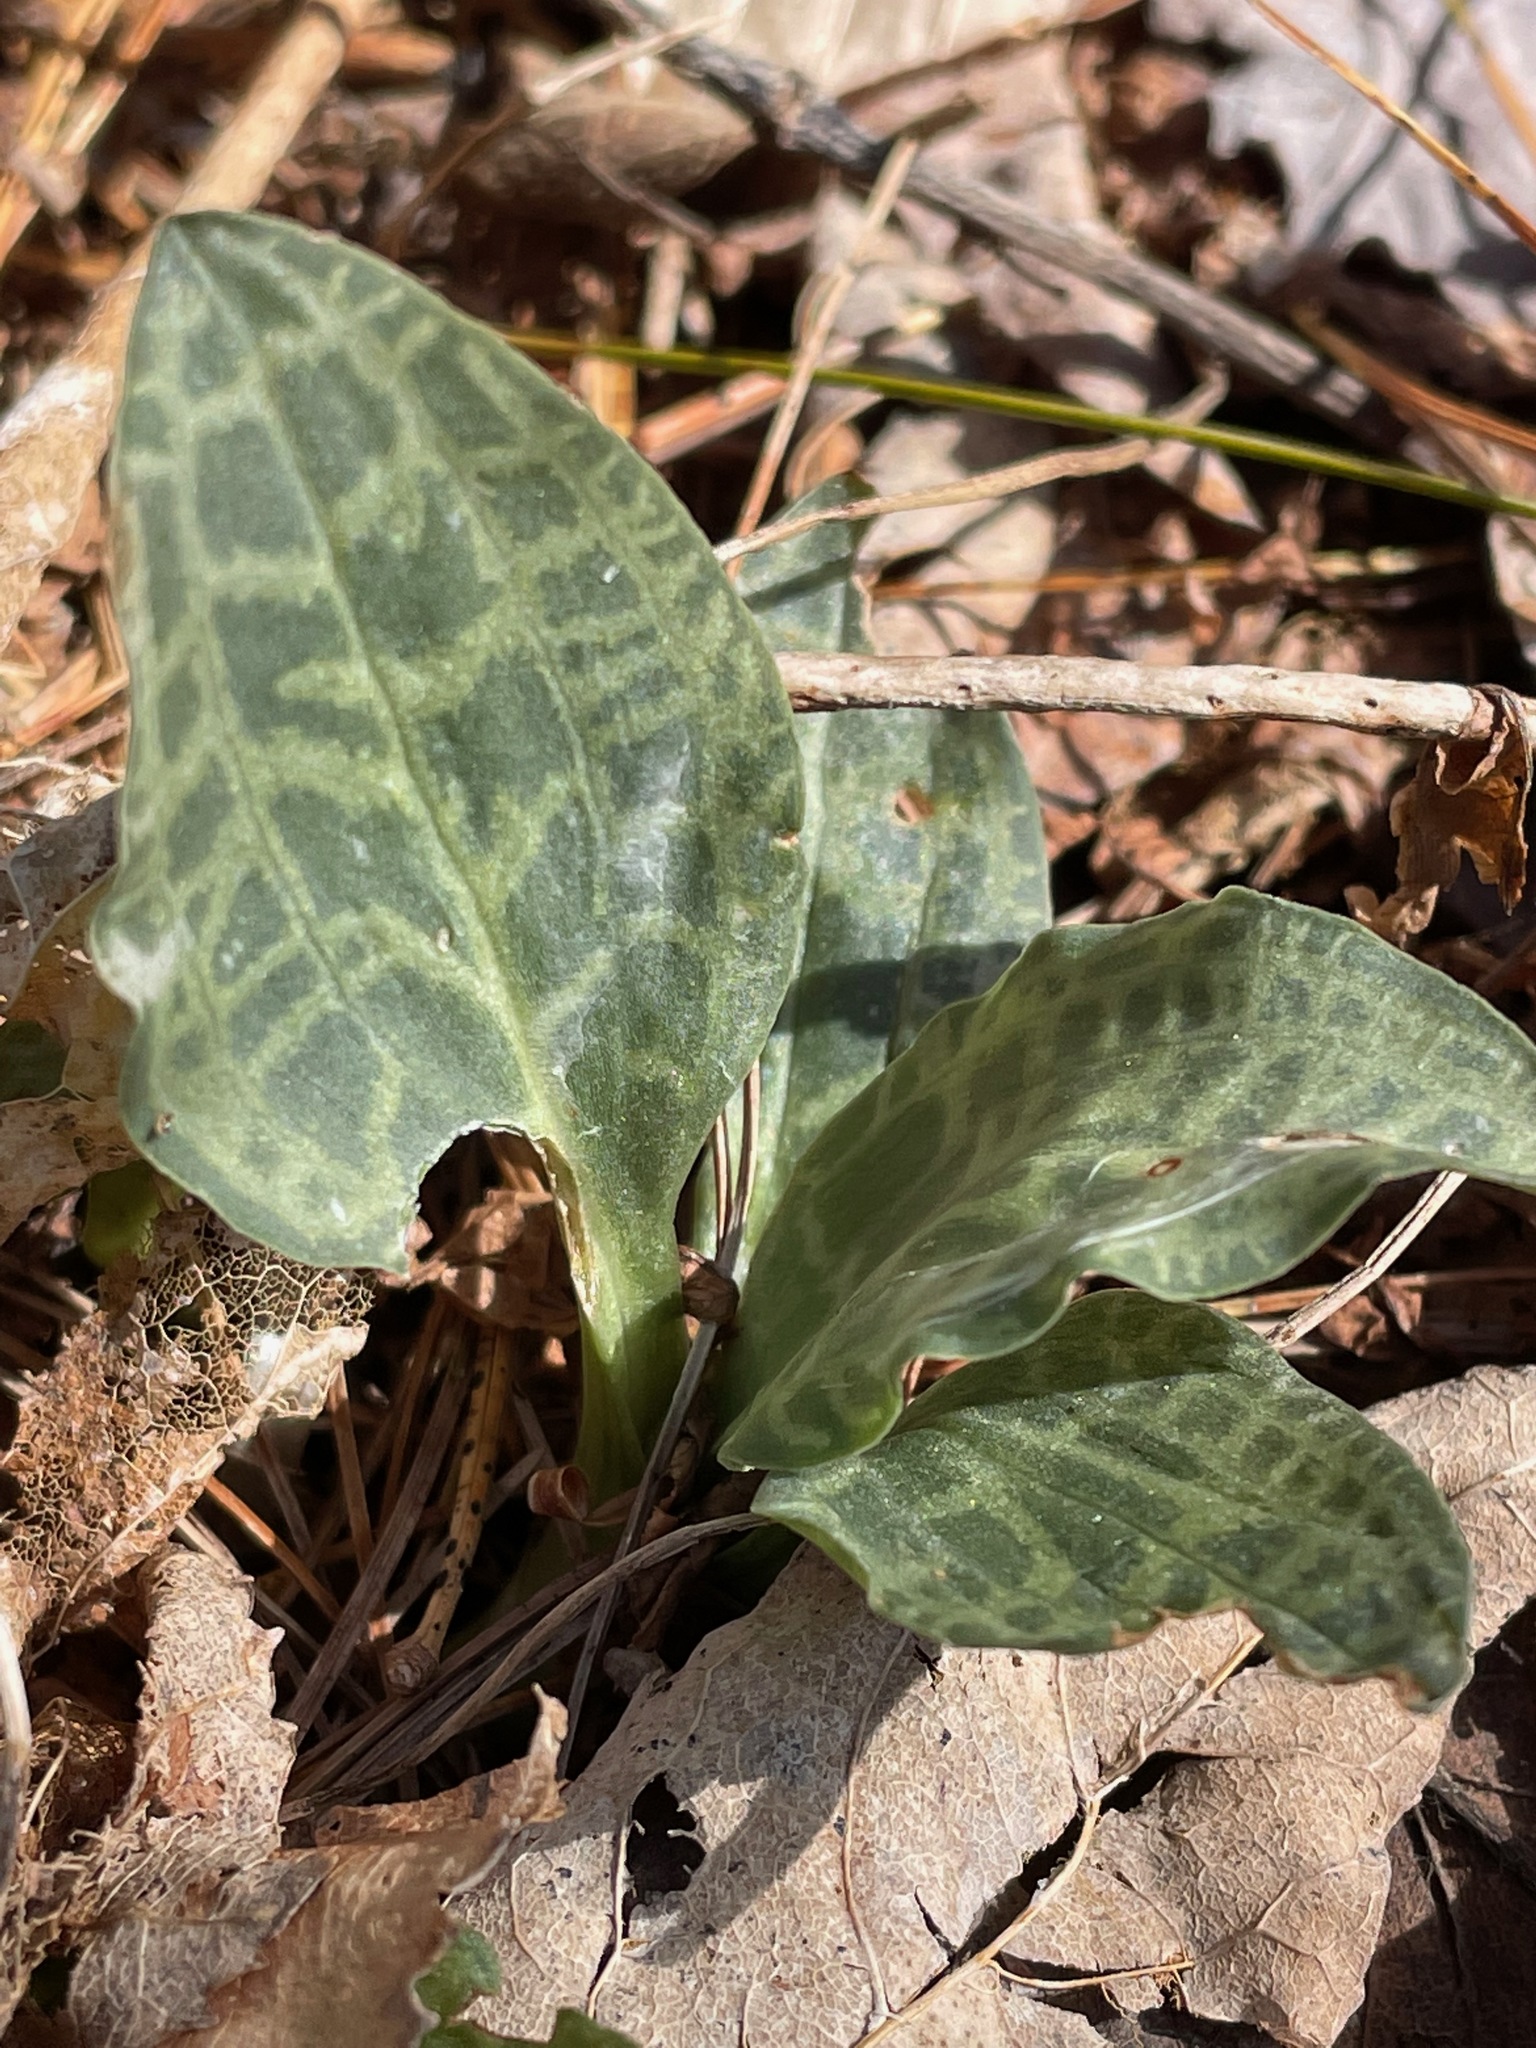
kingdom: Plantae
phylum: Tracheophyta
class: Liliopsida
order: Asparagales
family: Orchidaceae
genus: Goodyera
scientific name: Goodyera tesselata
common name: Checkered rattlesnake-plantain
